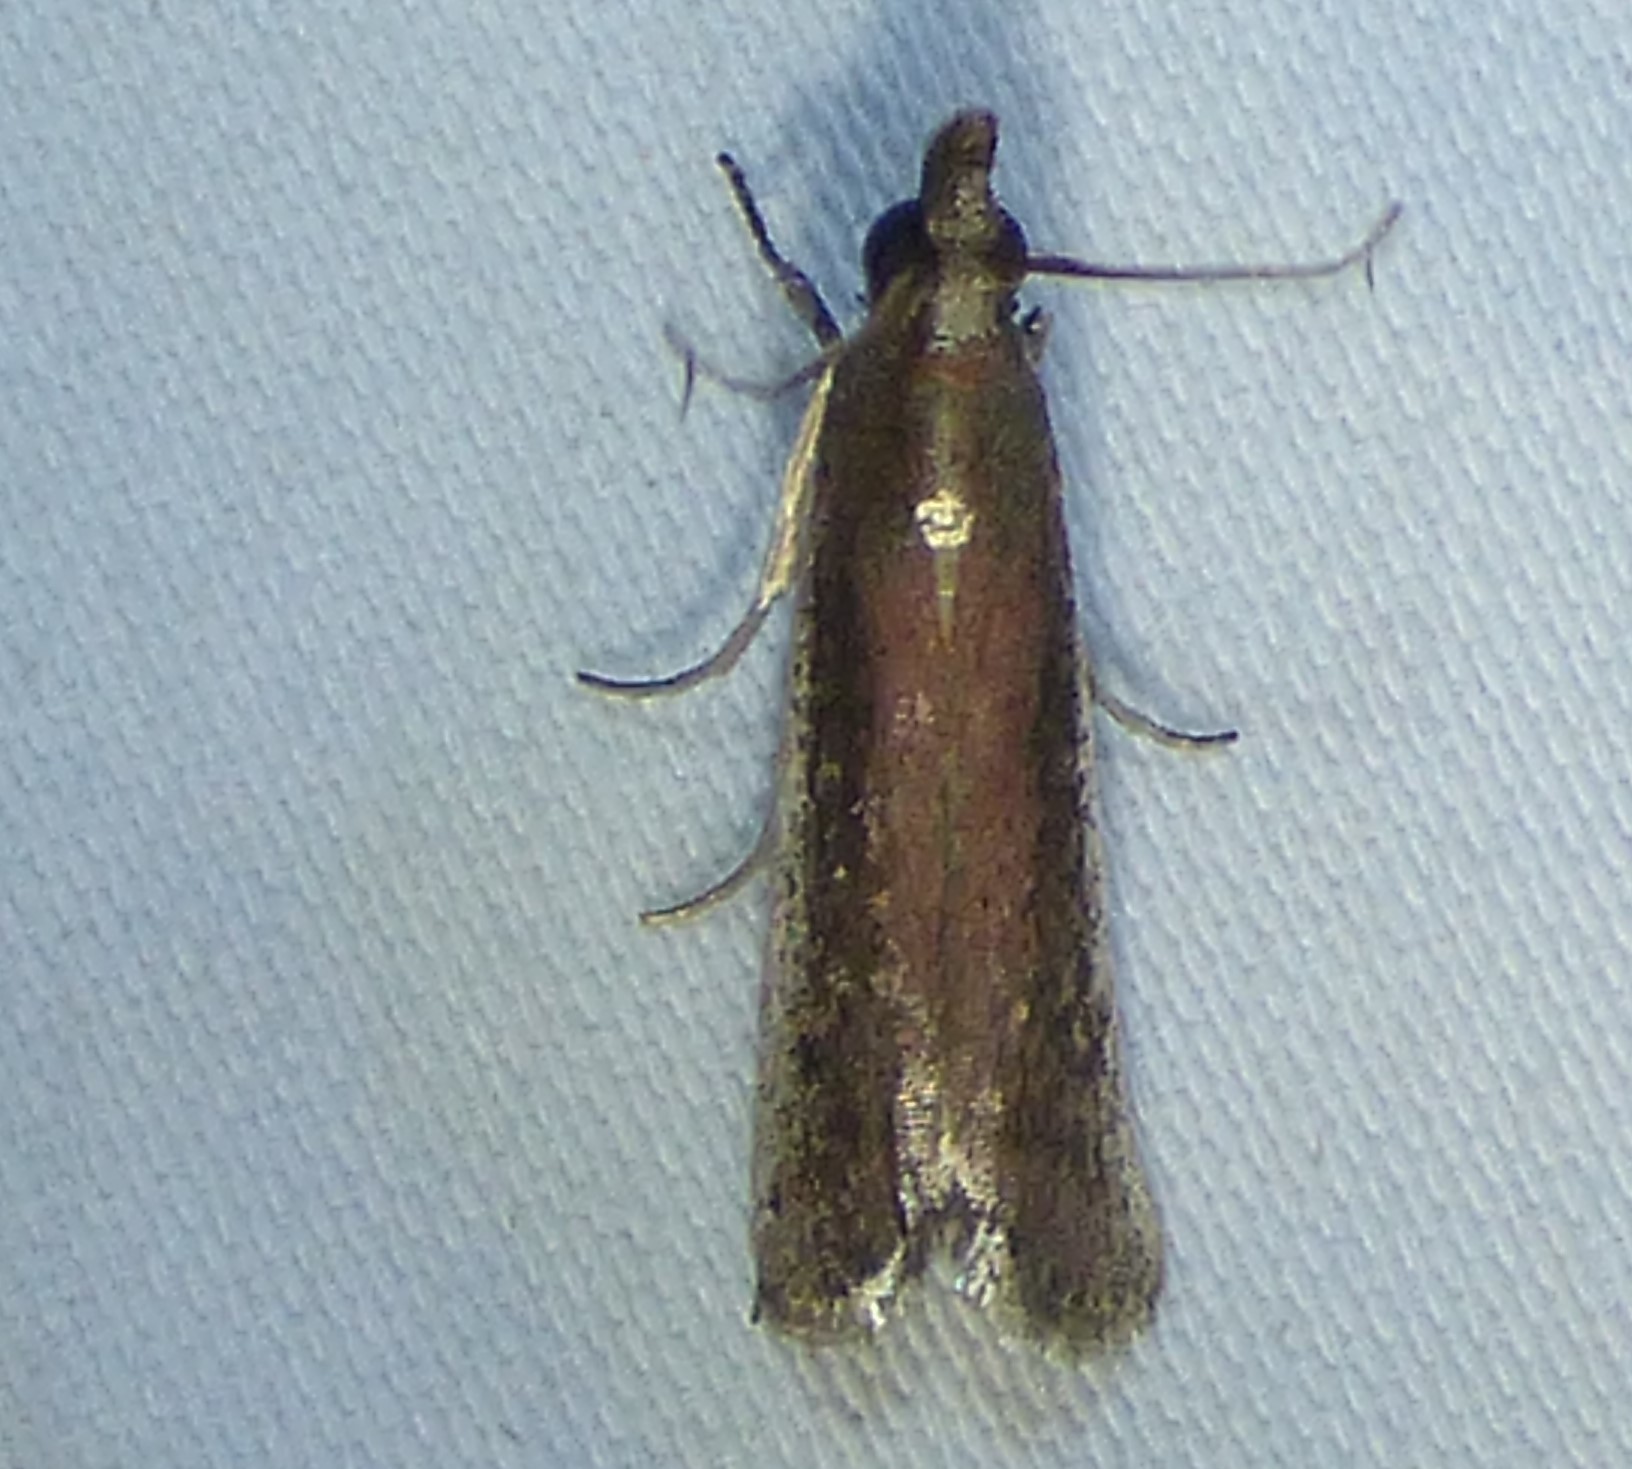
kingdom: Animalia
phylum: Arthropoda
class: Insecta
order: Lepidoptera
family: Pyralidae
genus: Tampa
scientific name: Tampa dimediatella
